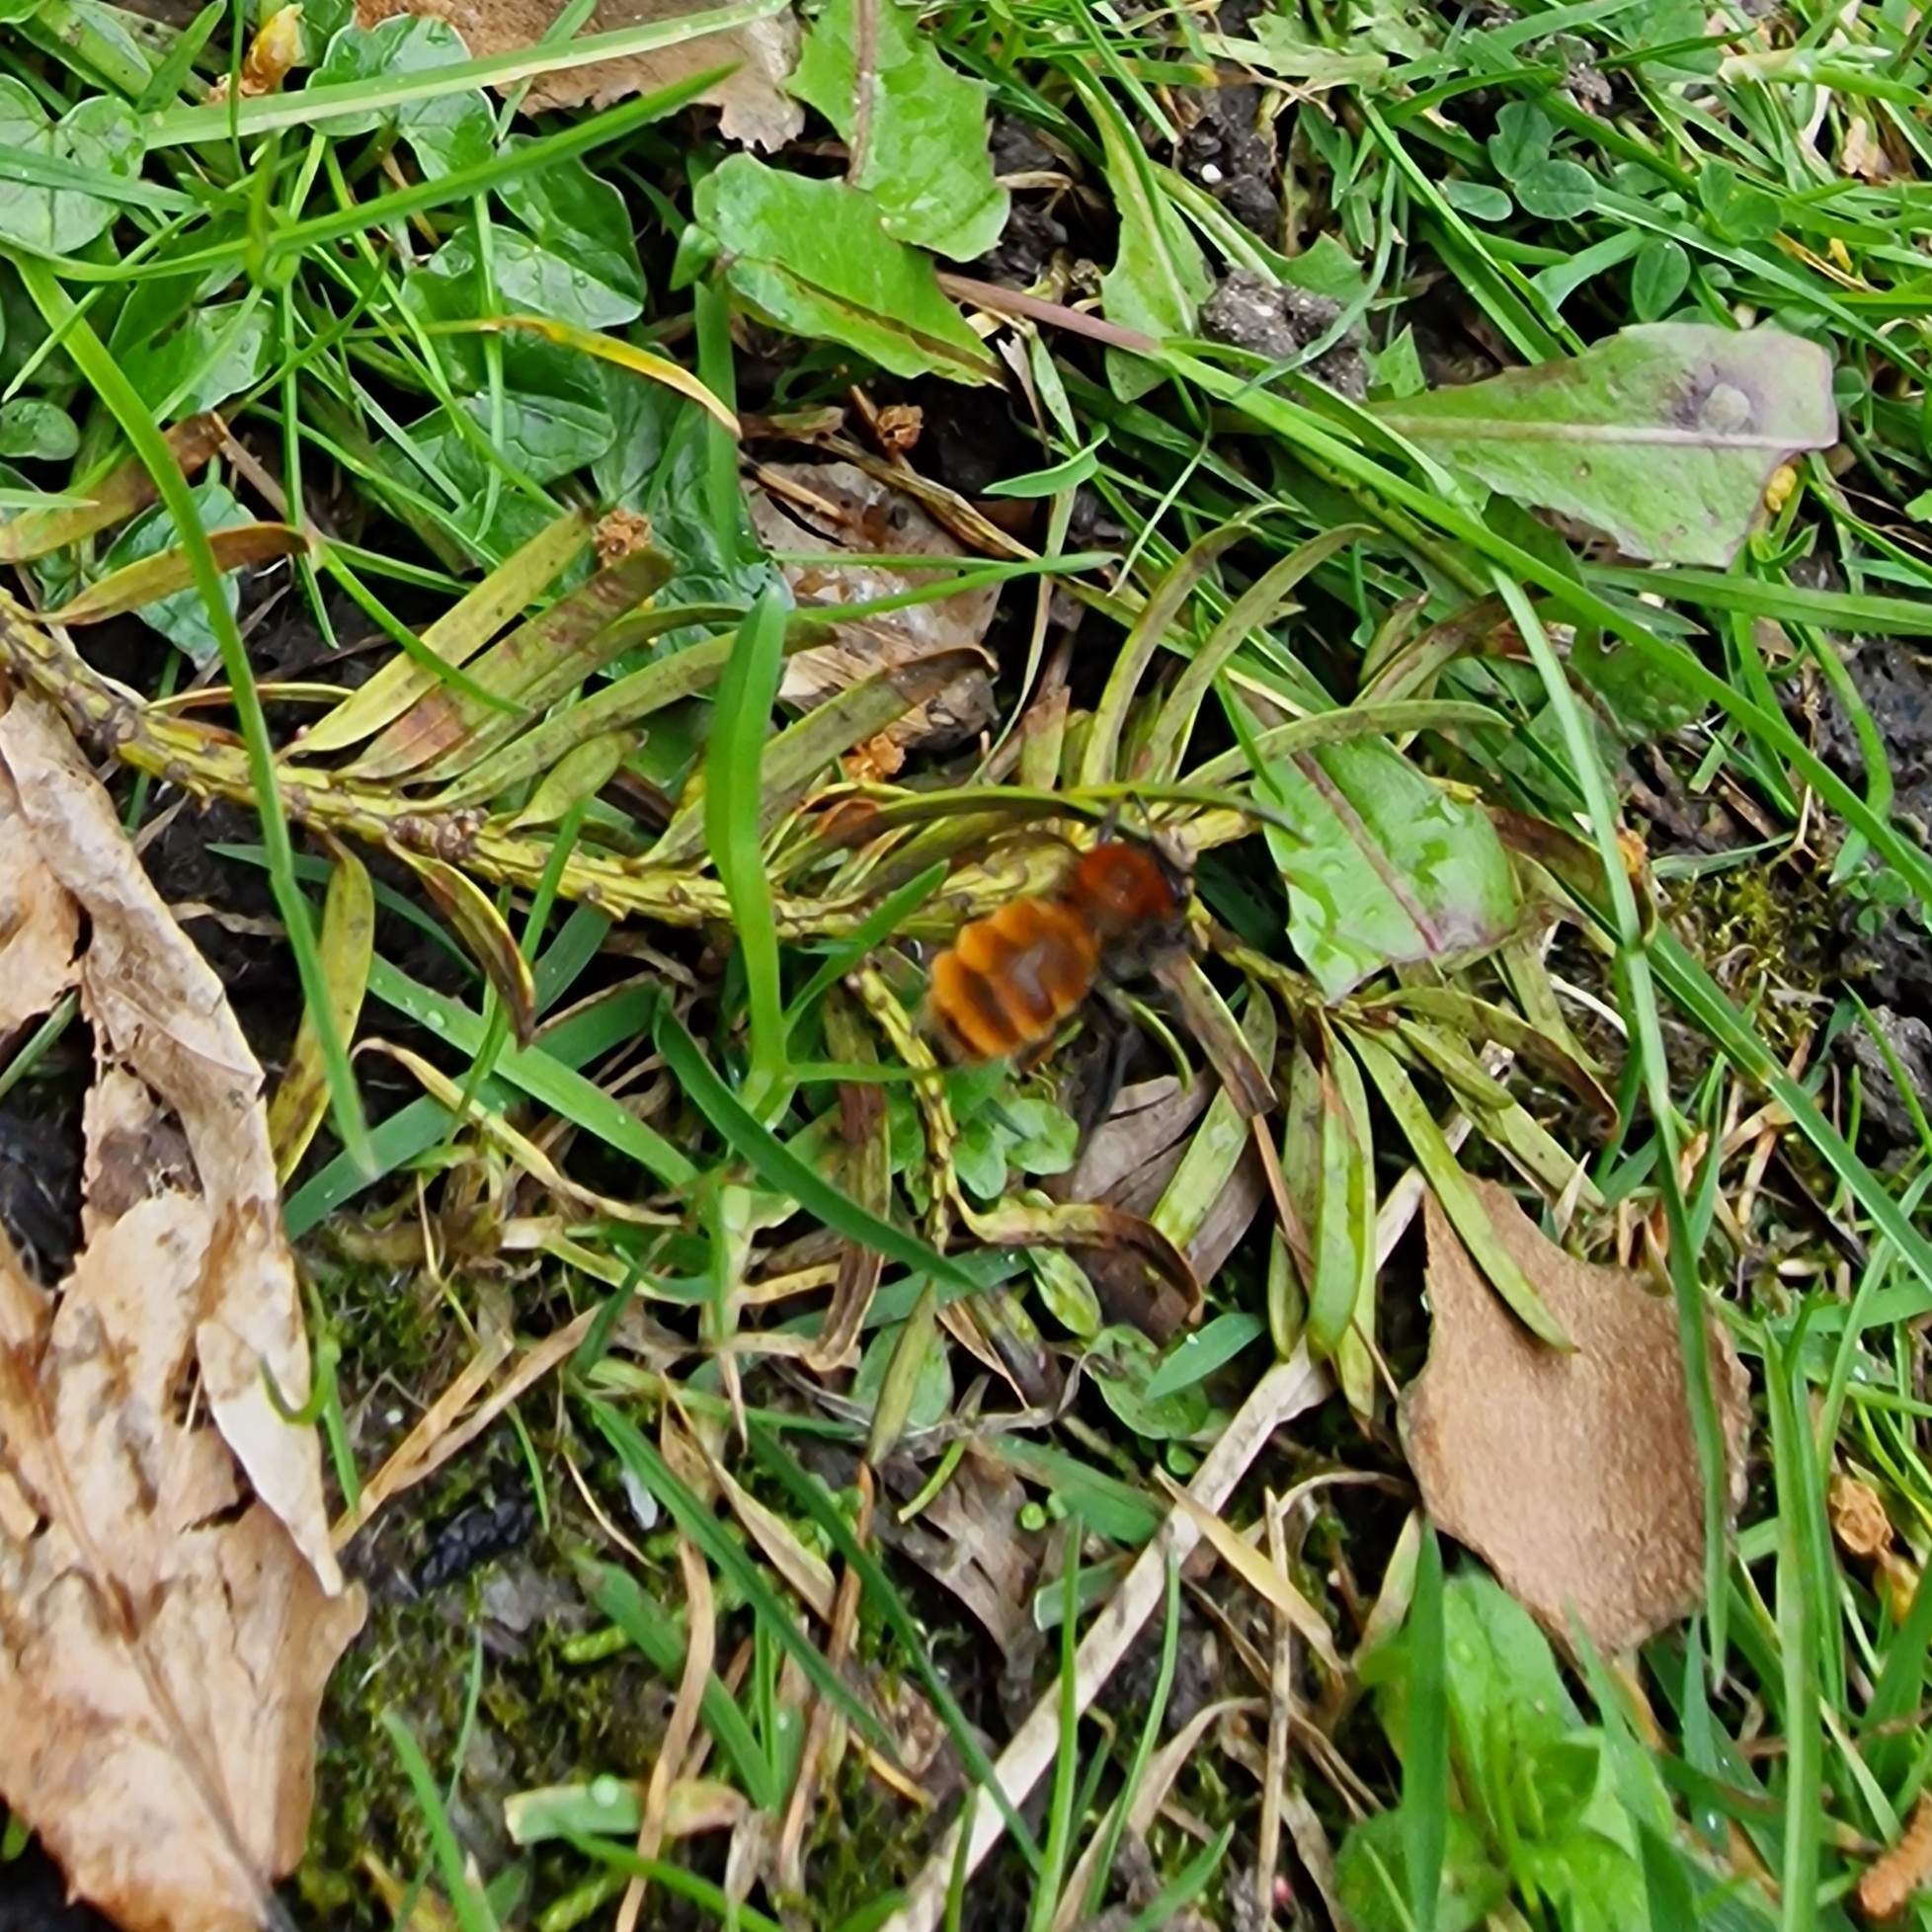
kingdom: Animalia
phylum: Arthropoda
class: Insecta
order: Hymenoptera
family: Andrenidae
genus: Andrena
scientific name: Andrena fulva
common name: Tawny mining bee
